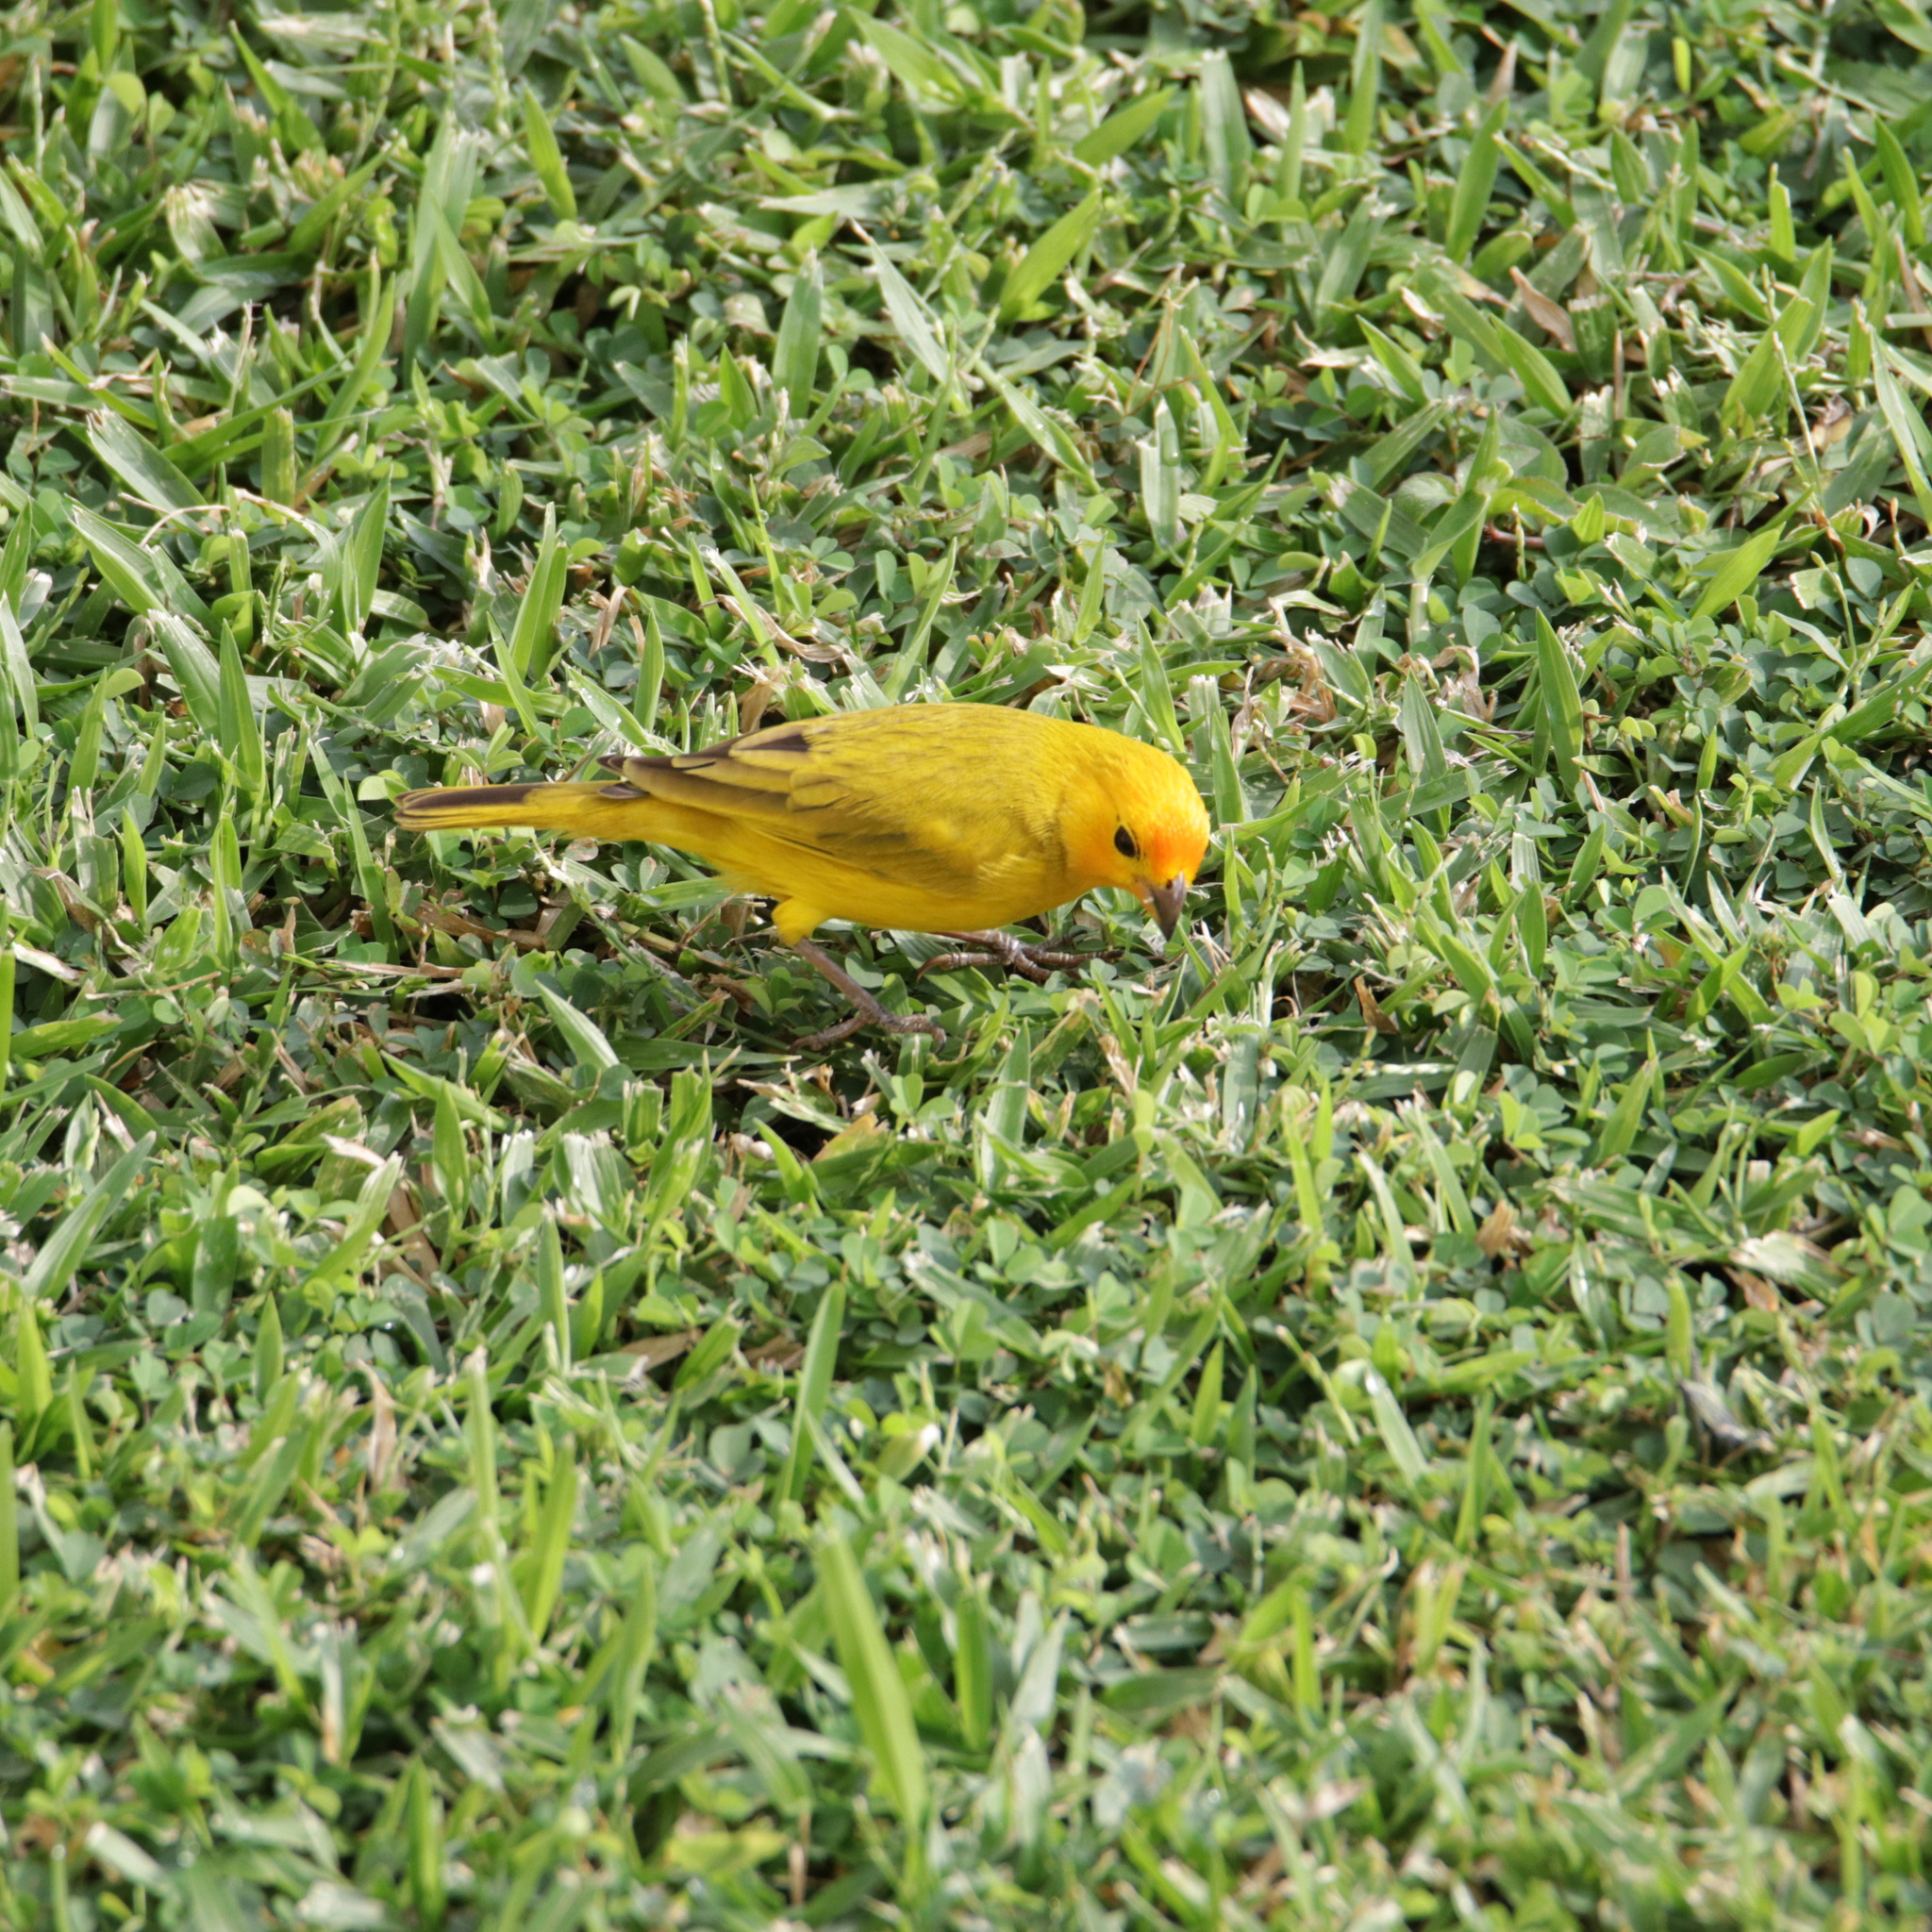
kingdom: Animalia
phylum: Chordata
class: Aves
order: Passeriformes
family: Thraupidae
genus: Sicalis
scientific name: Sicalis flaveola
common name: Saffron finch
